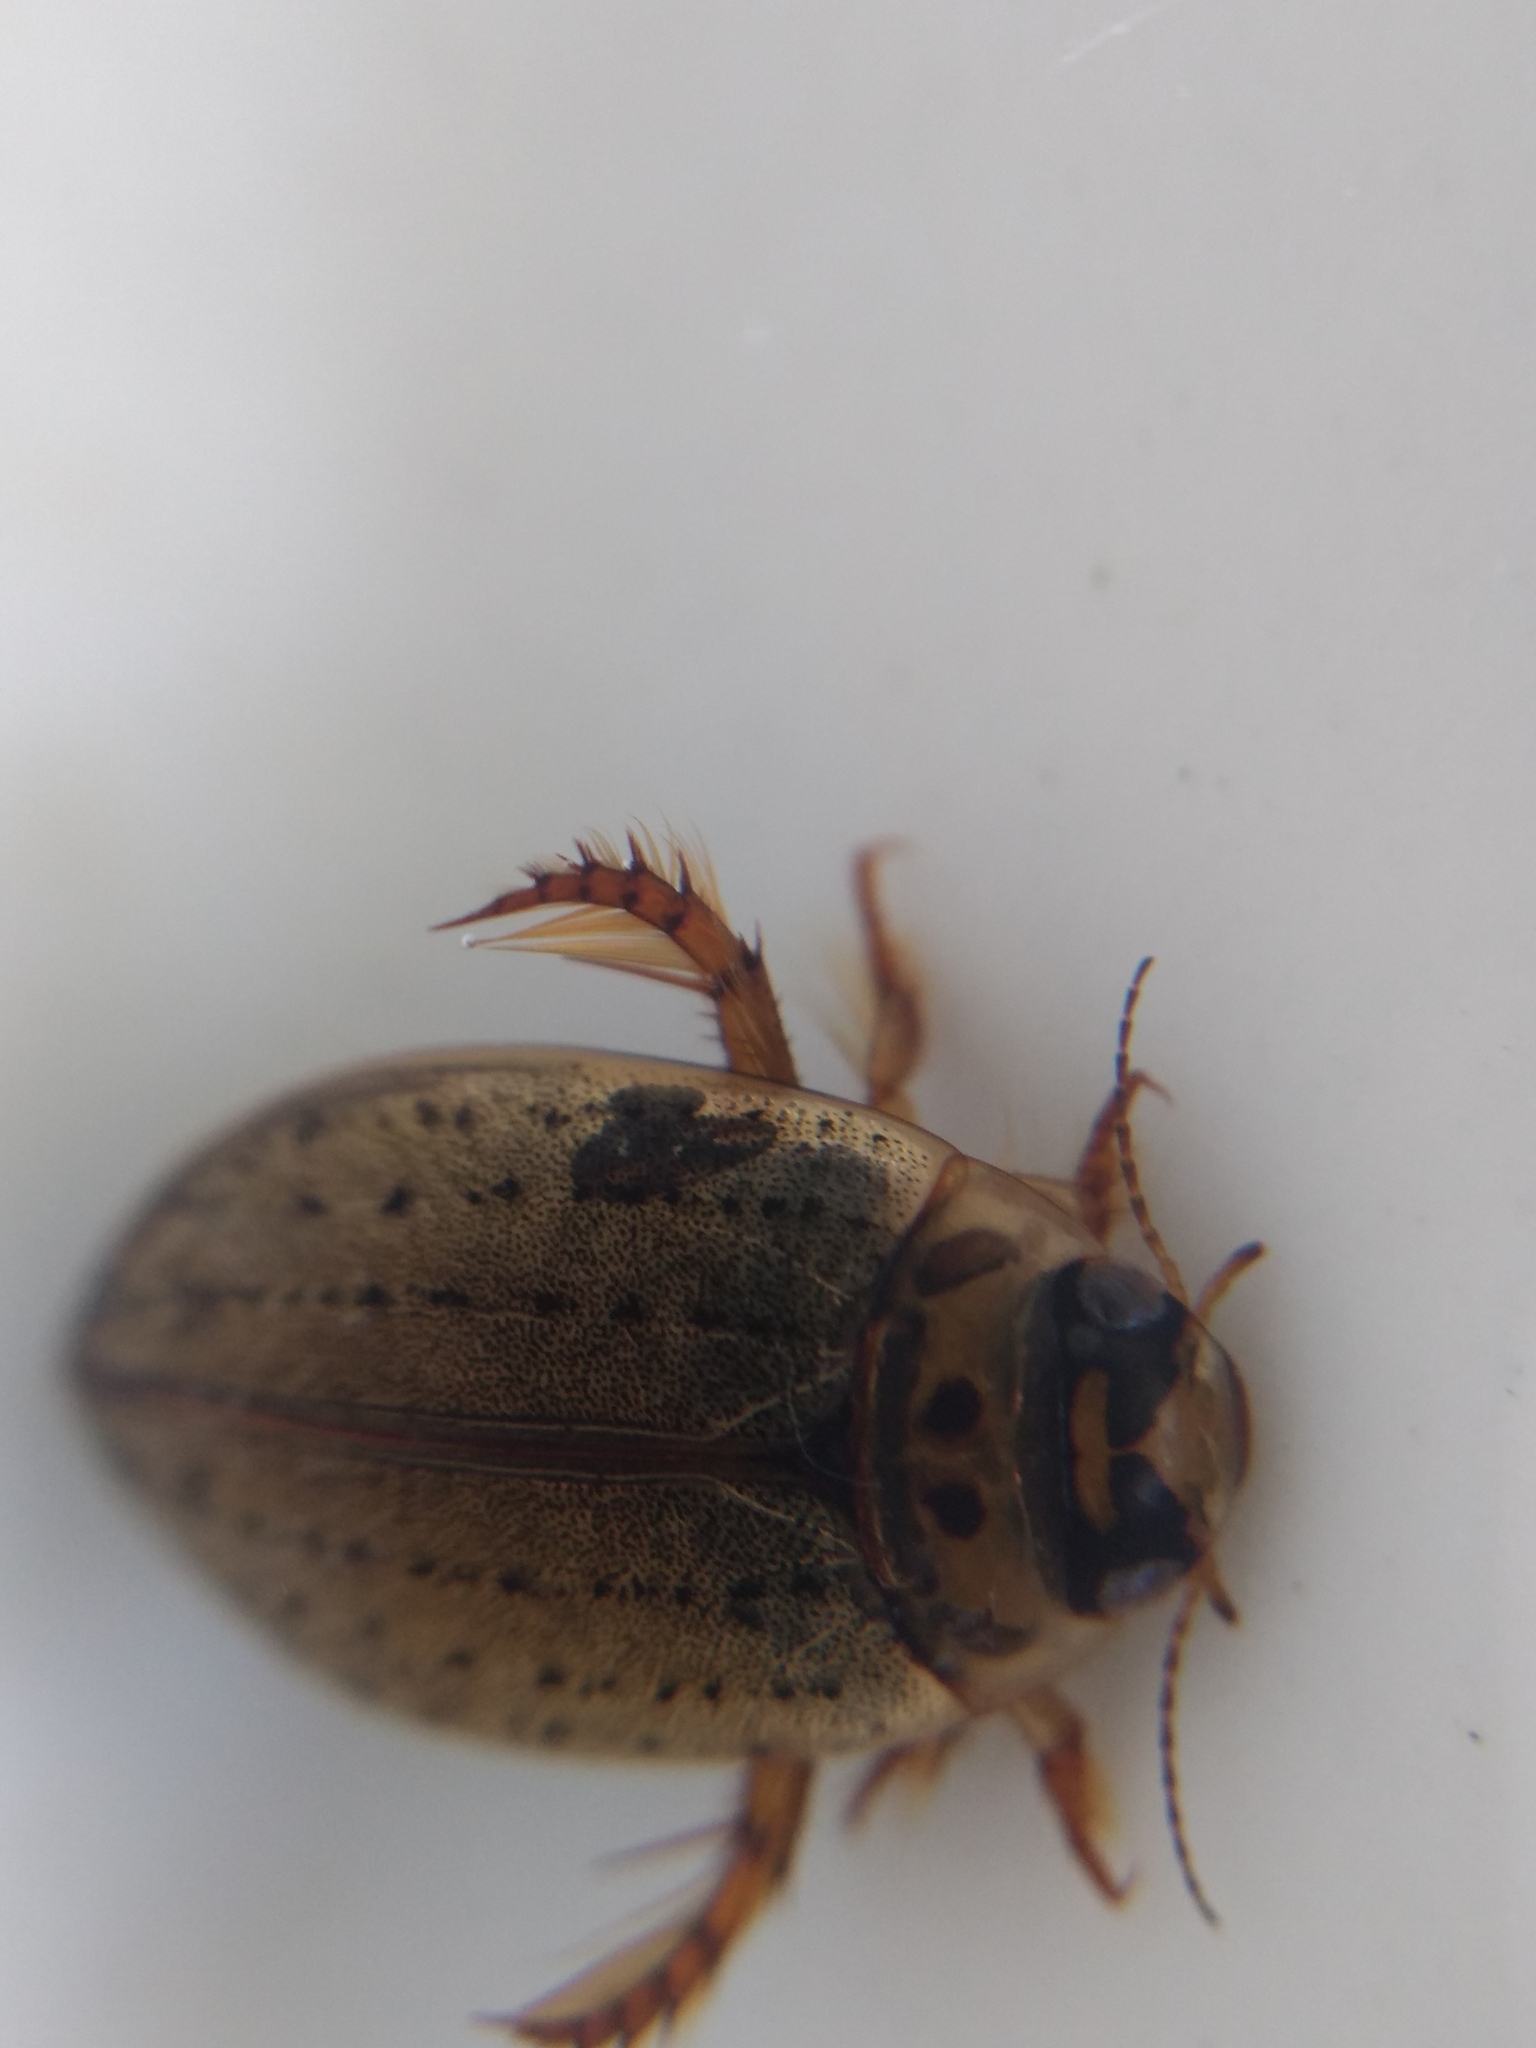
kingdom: Animalia
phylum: Arthropoda
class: Insecta
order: Coleoptera
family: Dytiscidae
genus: Rhantus
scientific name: Rhantus gutticollis
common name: Predaceous diving beetle
